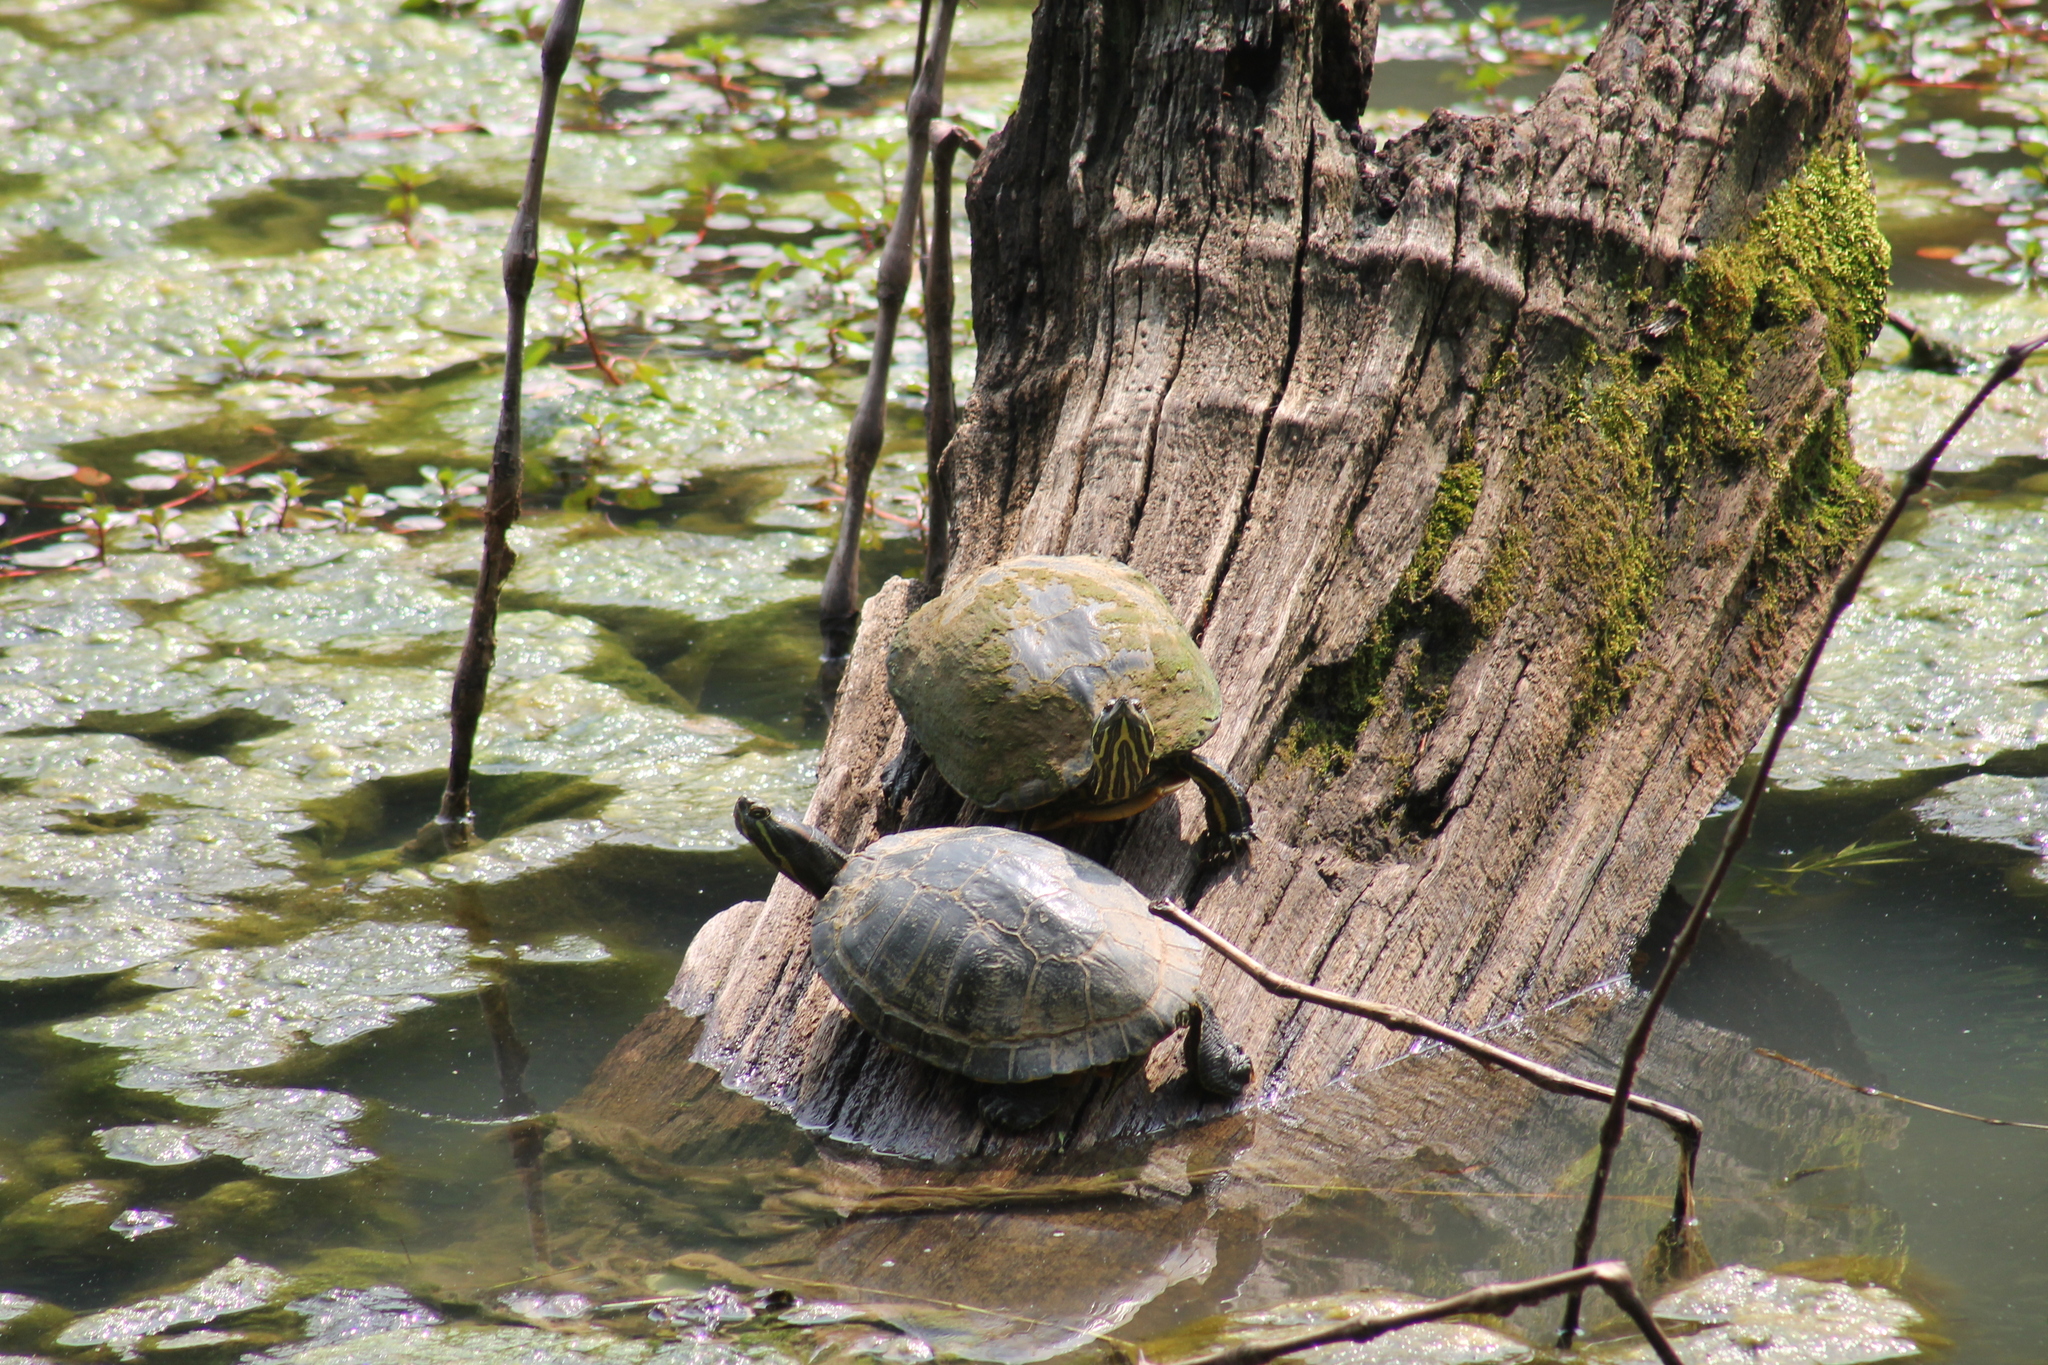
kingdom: Animalia
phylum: Chordata
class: Testudines
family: Emydidae
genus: Trachemys
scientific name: Trachemys scripta
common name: Slider
